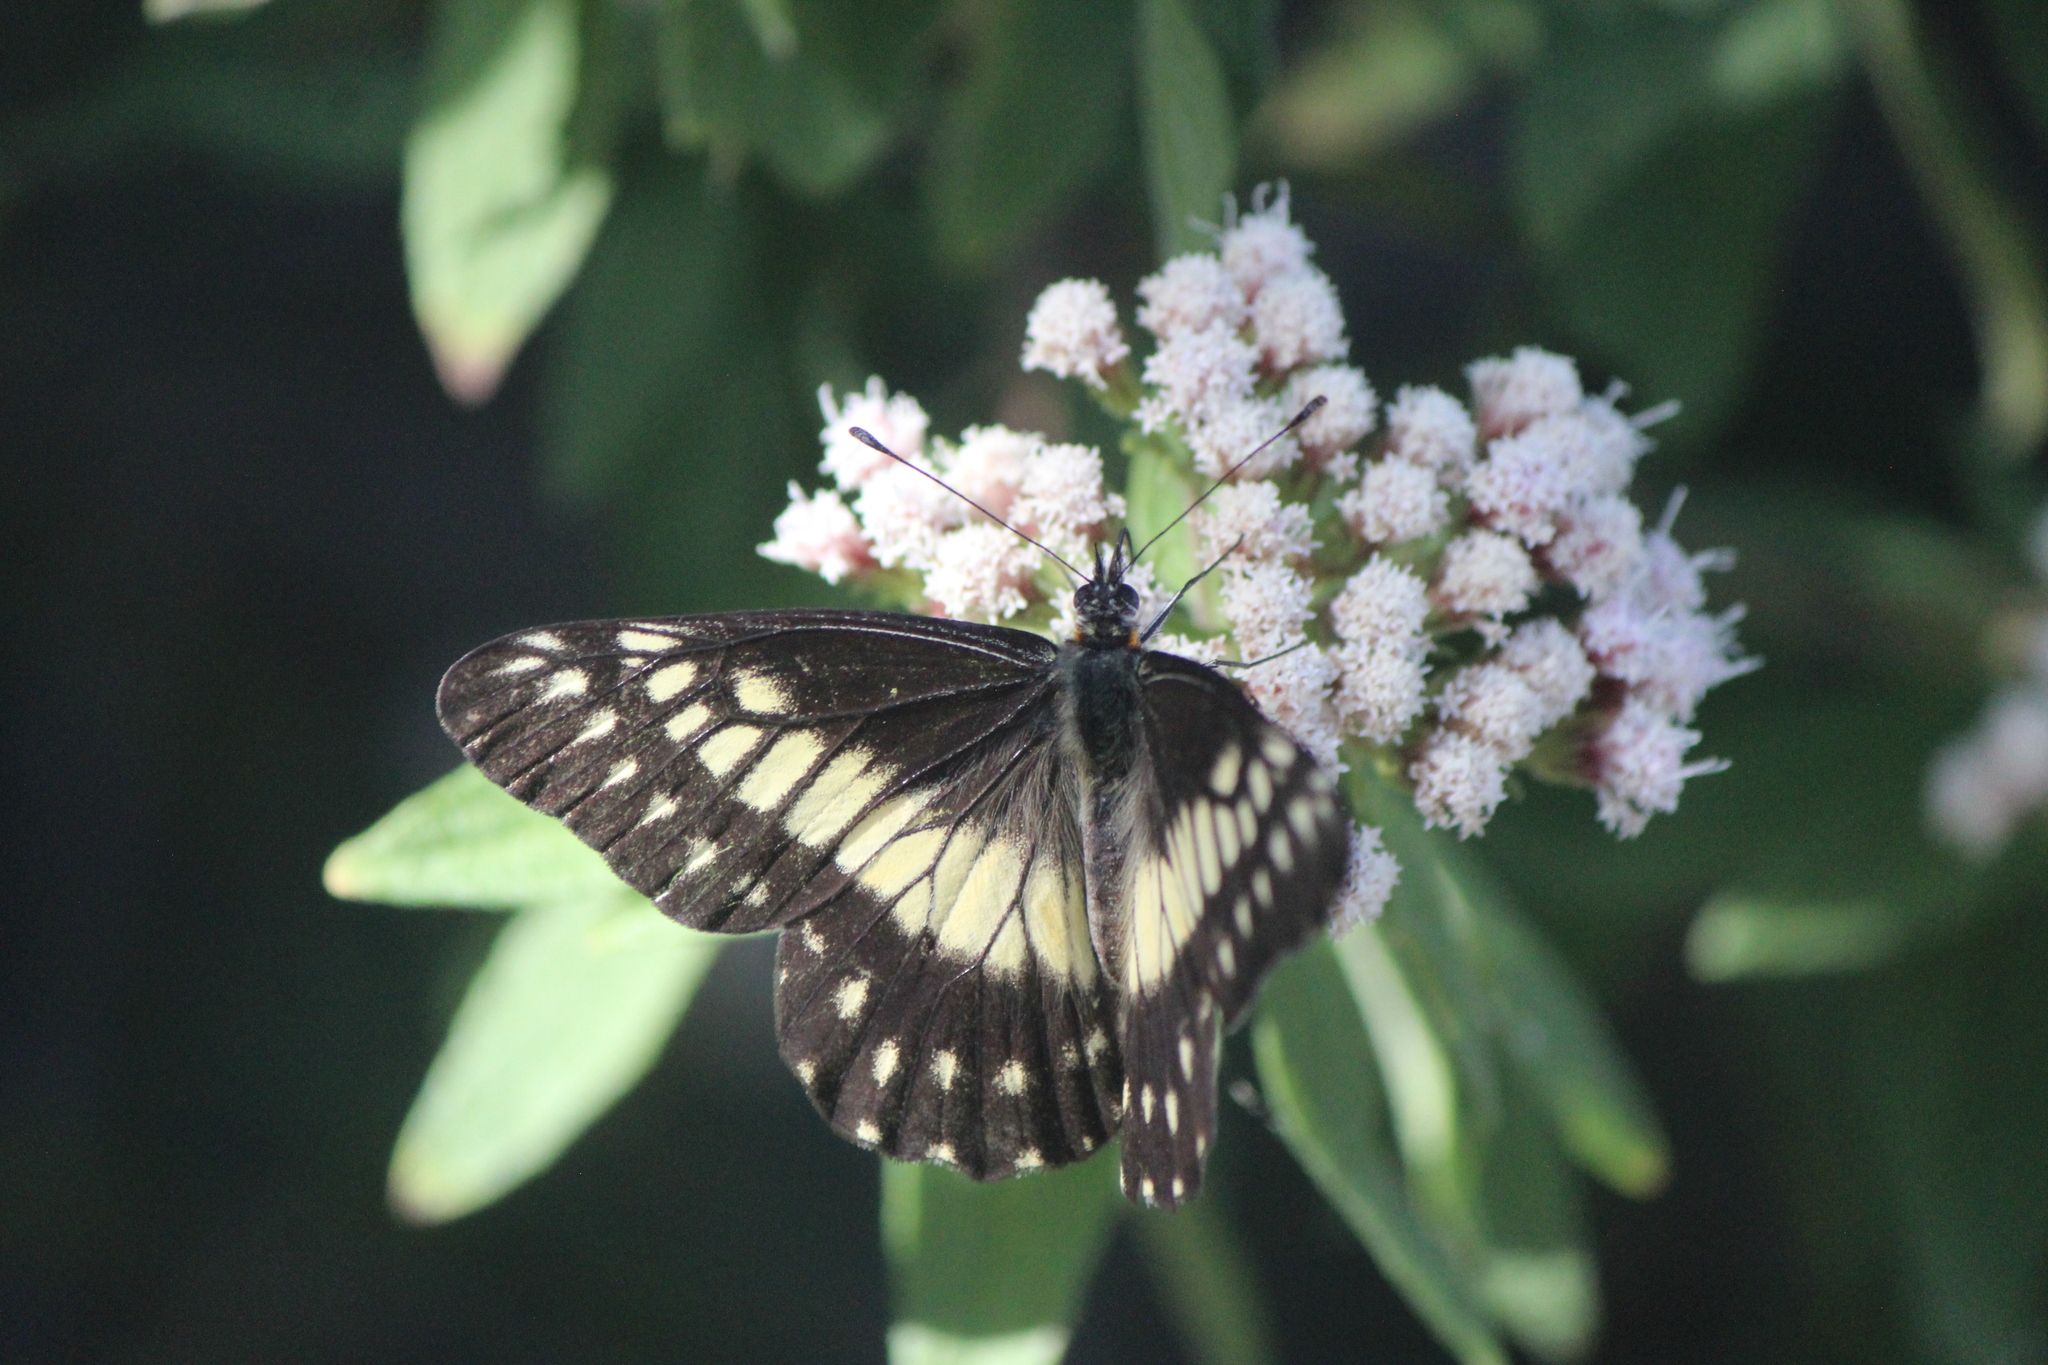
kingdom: Animalia
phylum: Arthropoda
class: Insecta
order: Lepidoptera
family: Pieridae
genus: Archonias
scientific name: Archonias nimbice
